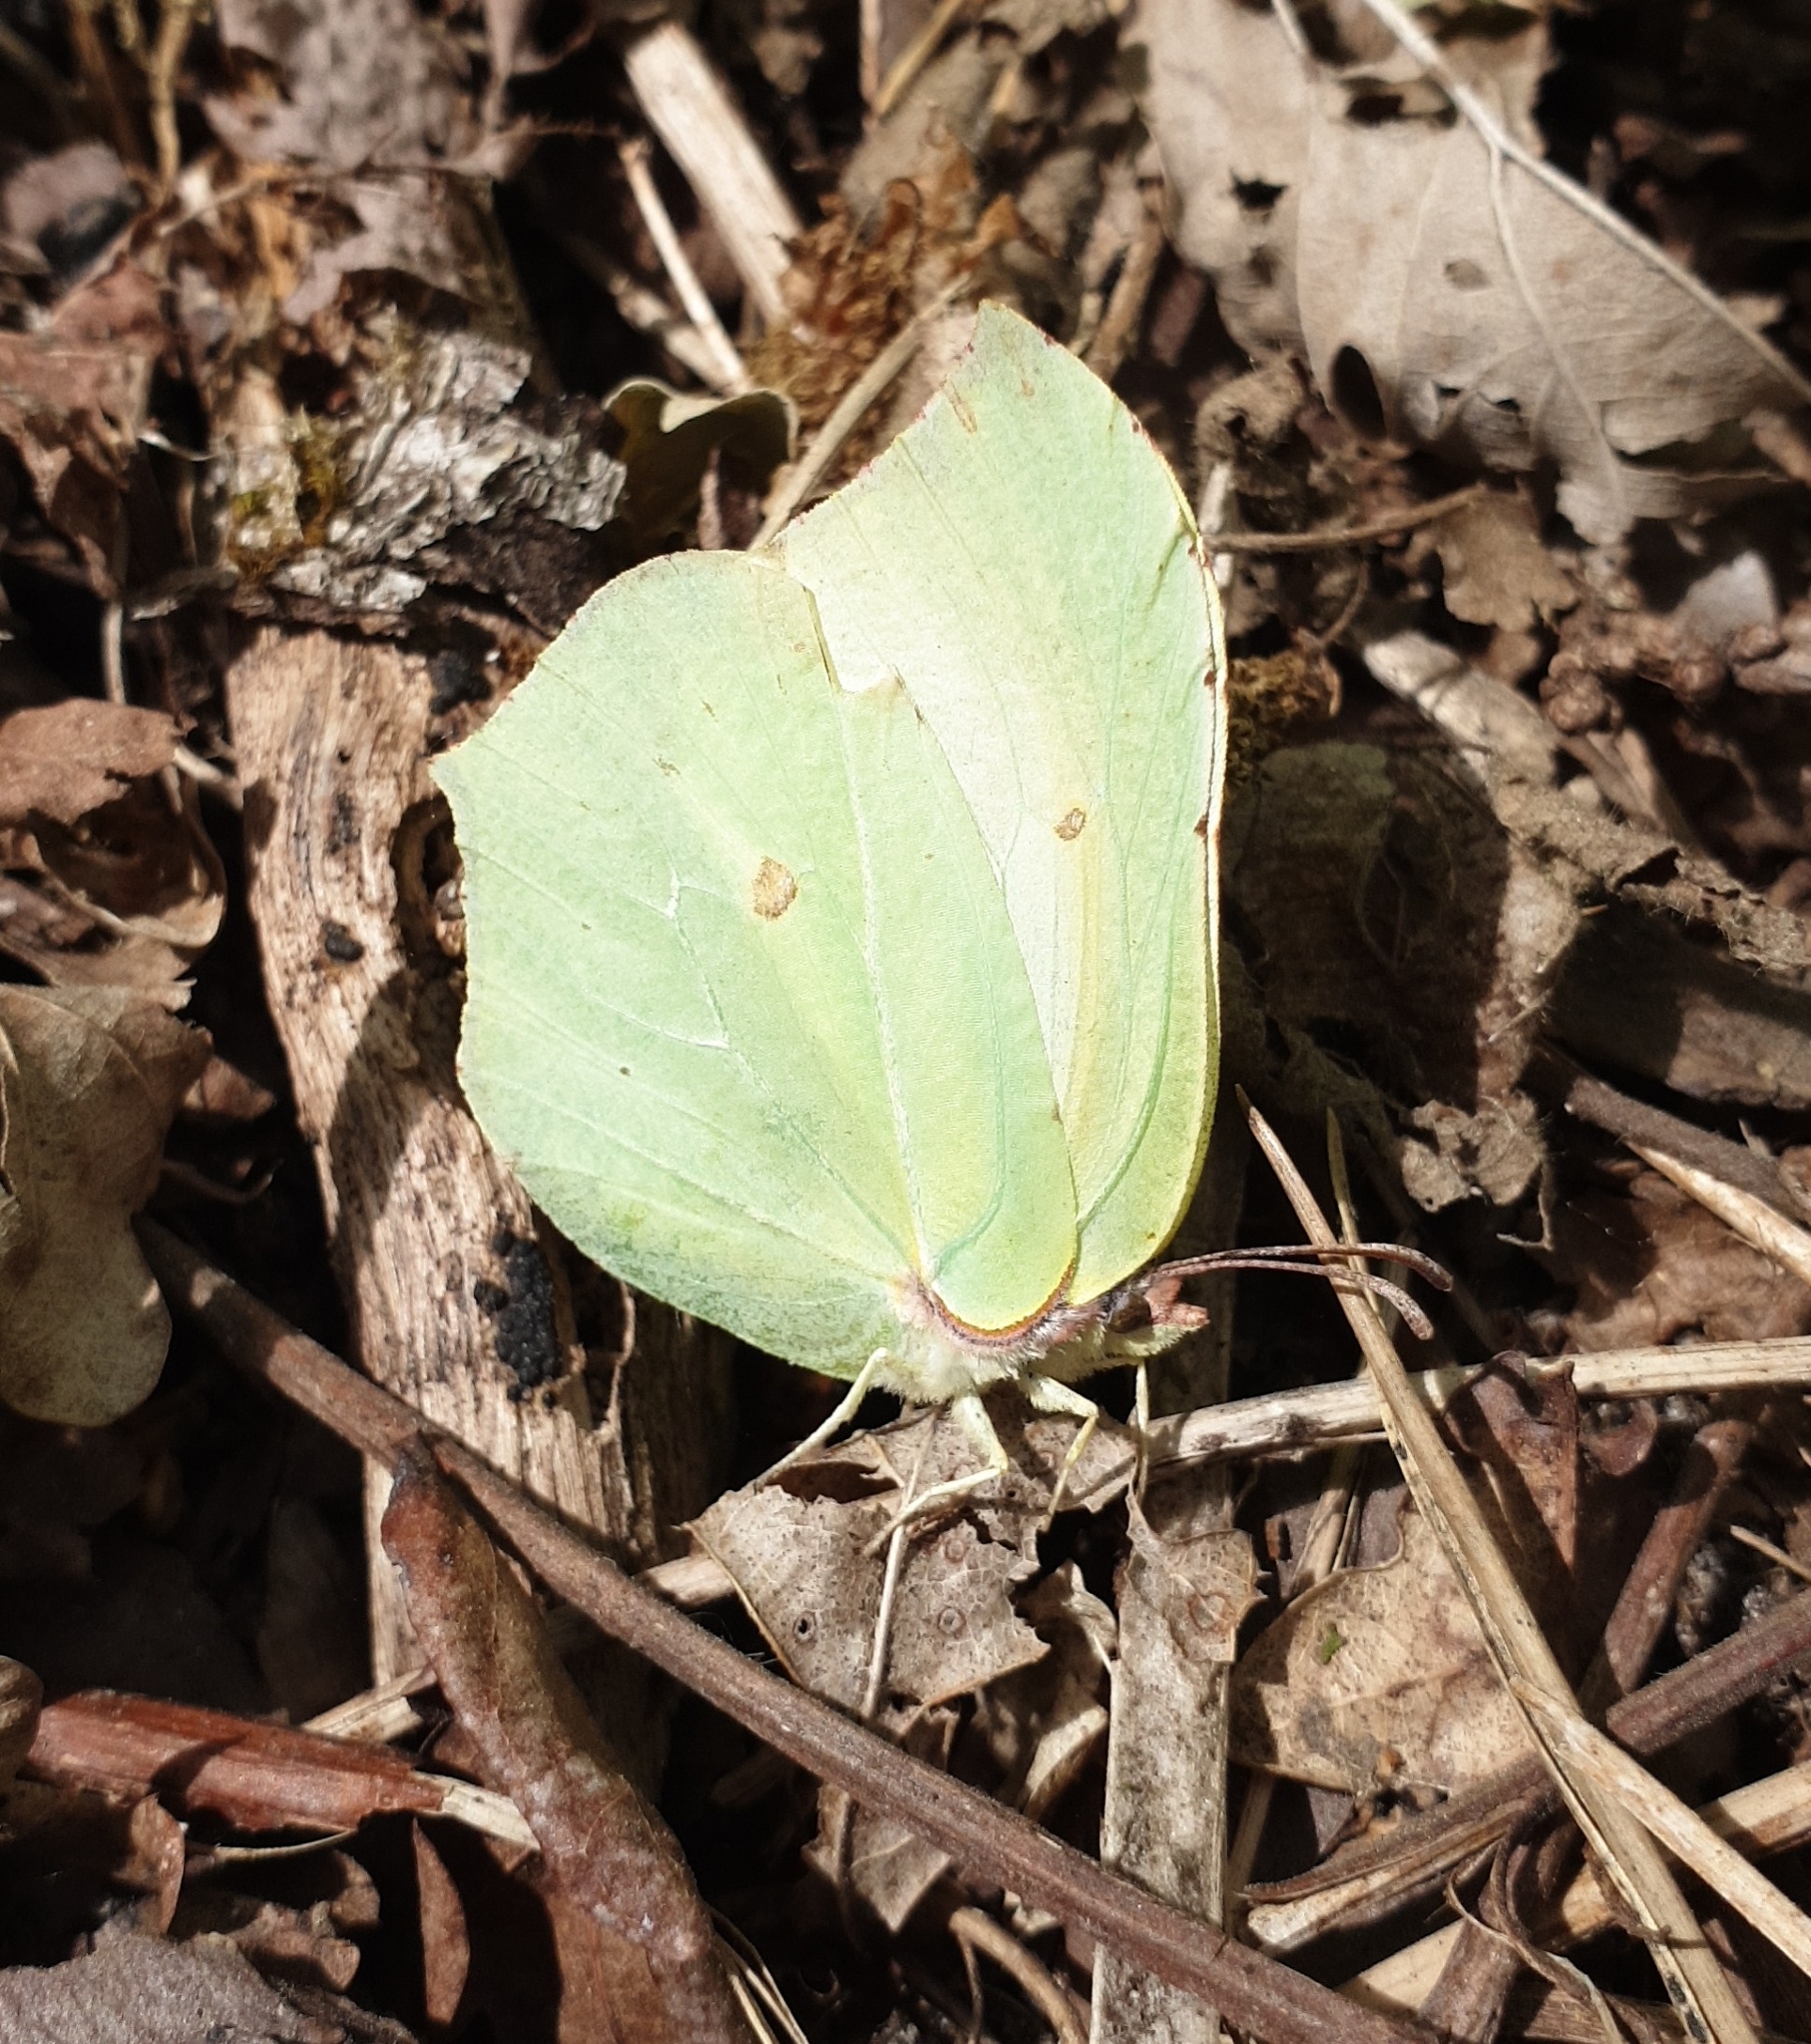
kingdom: Animalia
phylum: Arthropoda
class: Insecta
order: Lepidoptera
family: Pieridae
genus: Gonepteryx
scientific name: Gonepteryx rhamni
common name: Brimstone
